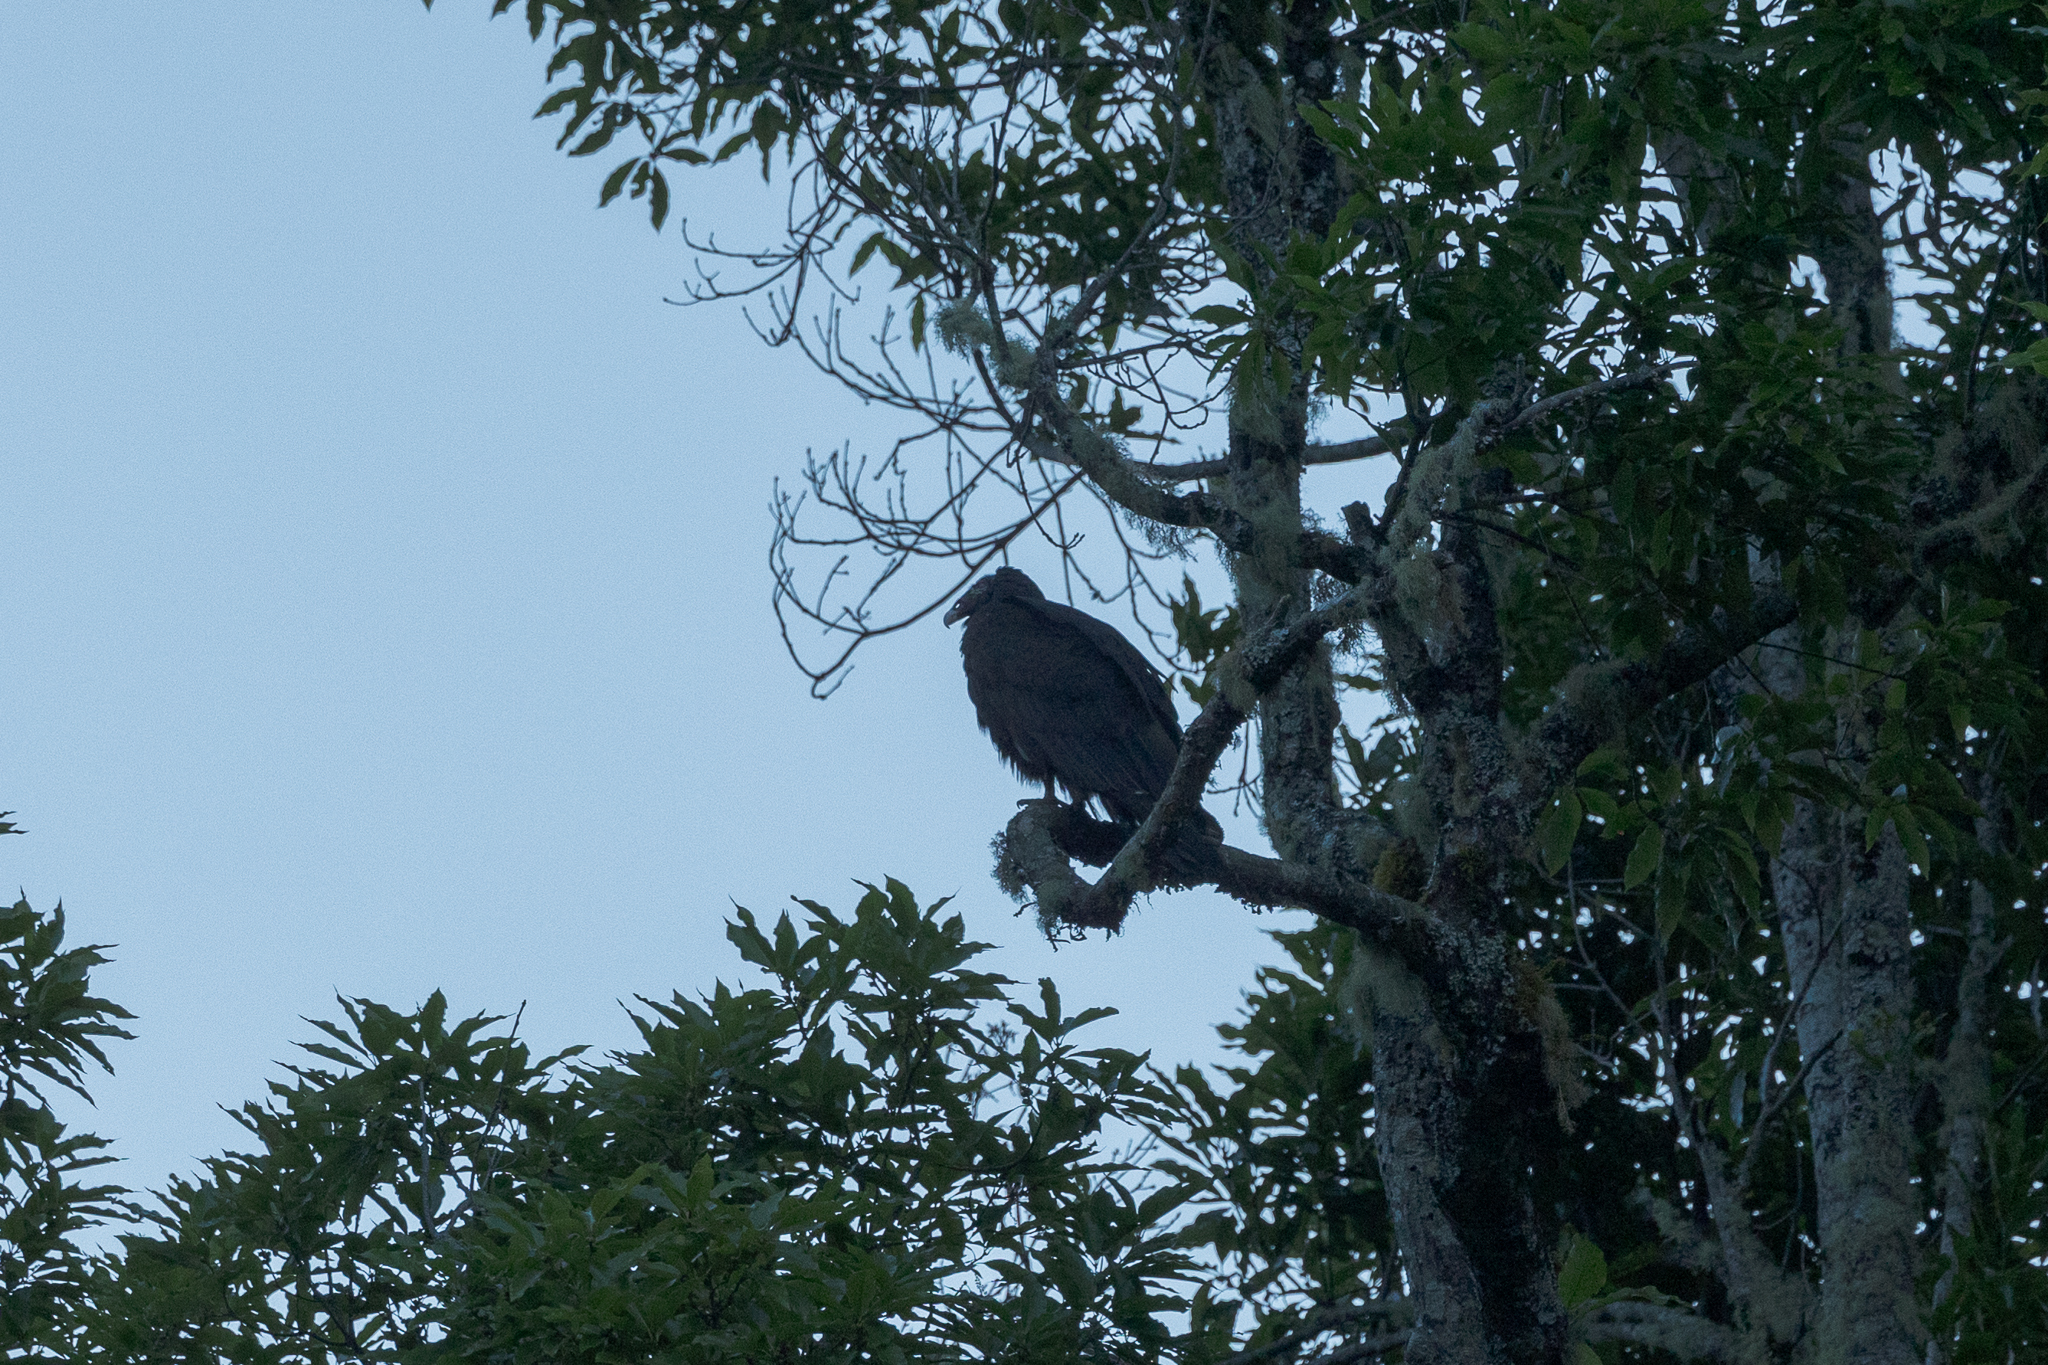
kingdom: Animalia
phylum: Chordata
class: Aves
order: Accipitriformes
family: Cathartidae
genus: Coragyps
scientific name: Coragyps atratus
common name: Black vulture
